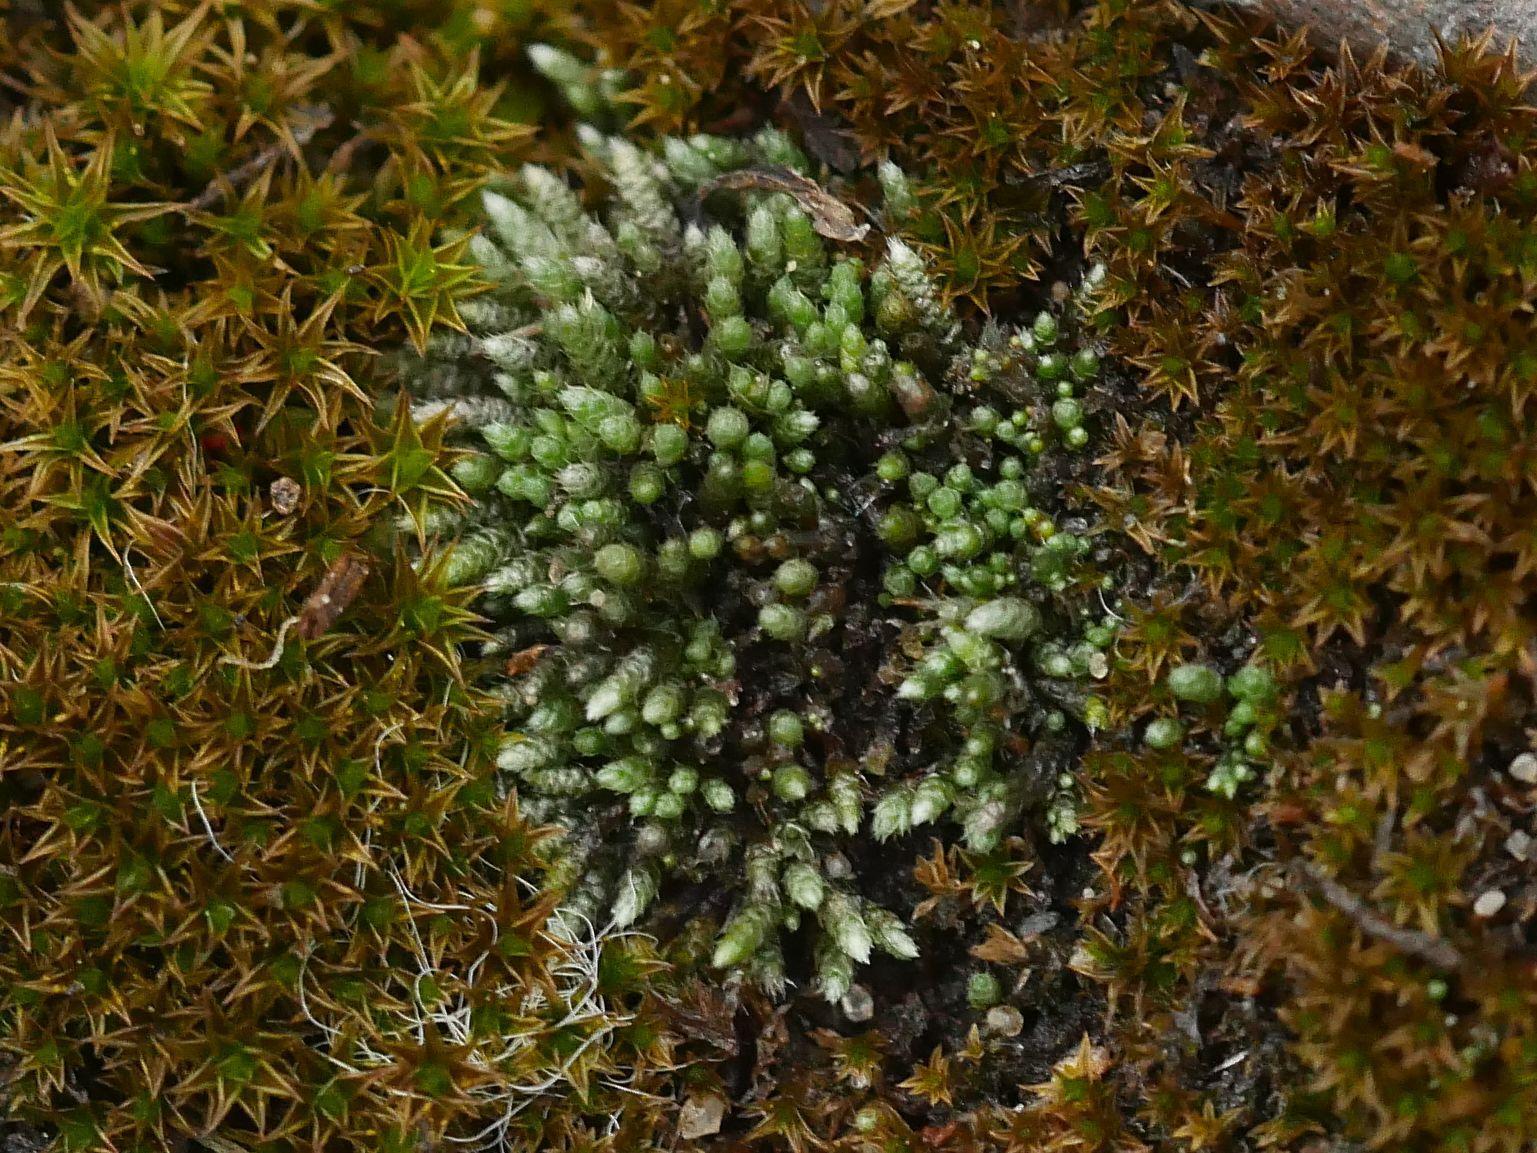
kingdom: Plantae
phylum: Bryophyta
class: Bryopsida
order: Bryales
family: Bryaceae
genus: Bryum
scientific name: Bryum argenteum
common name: Silver-moss
